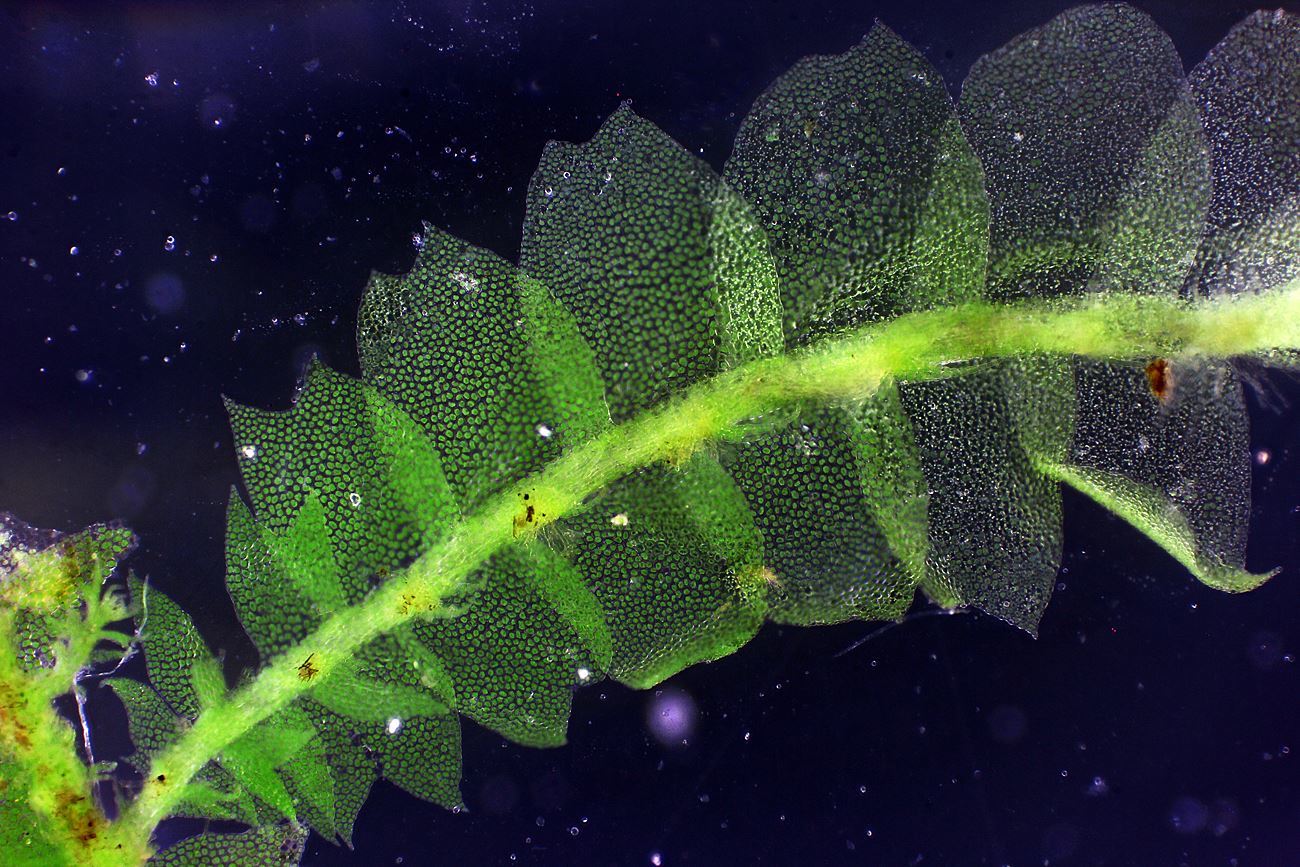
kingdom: Plantae
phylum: Marchantiophyta
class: Jungermanniopsida
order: Jungermanniales
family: Lophocoleaceae
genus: Lophocolea
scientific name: Lophocolea heterophylla
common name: Variable-leaved crestwort
